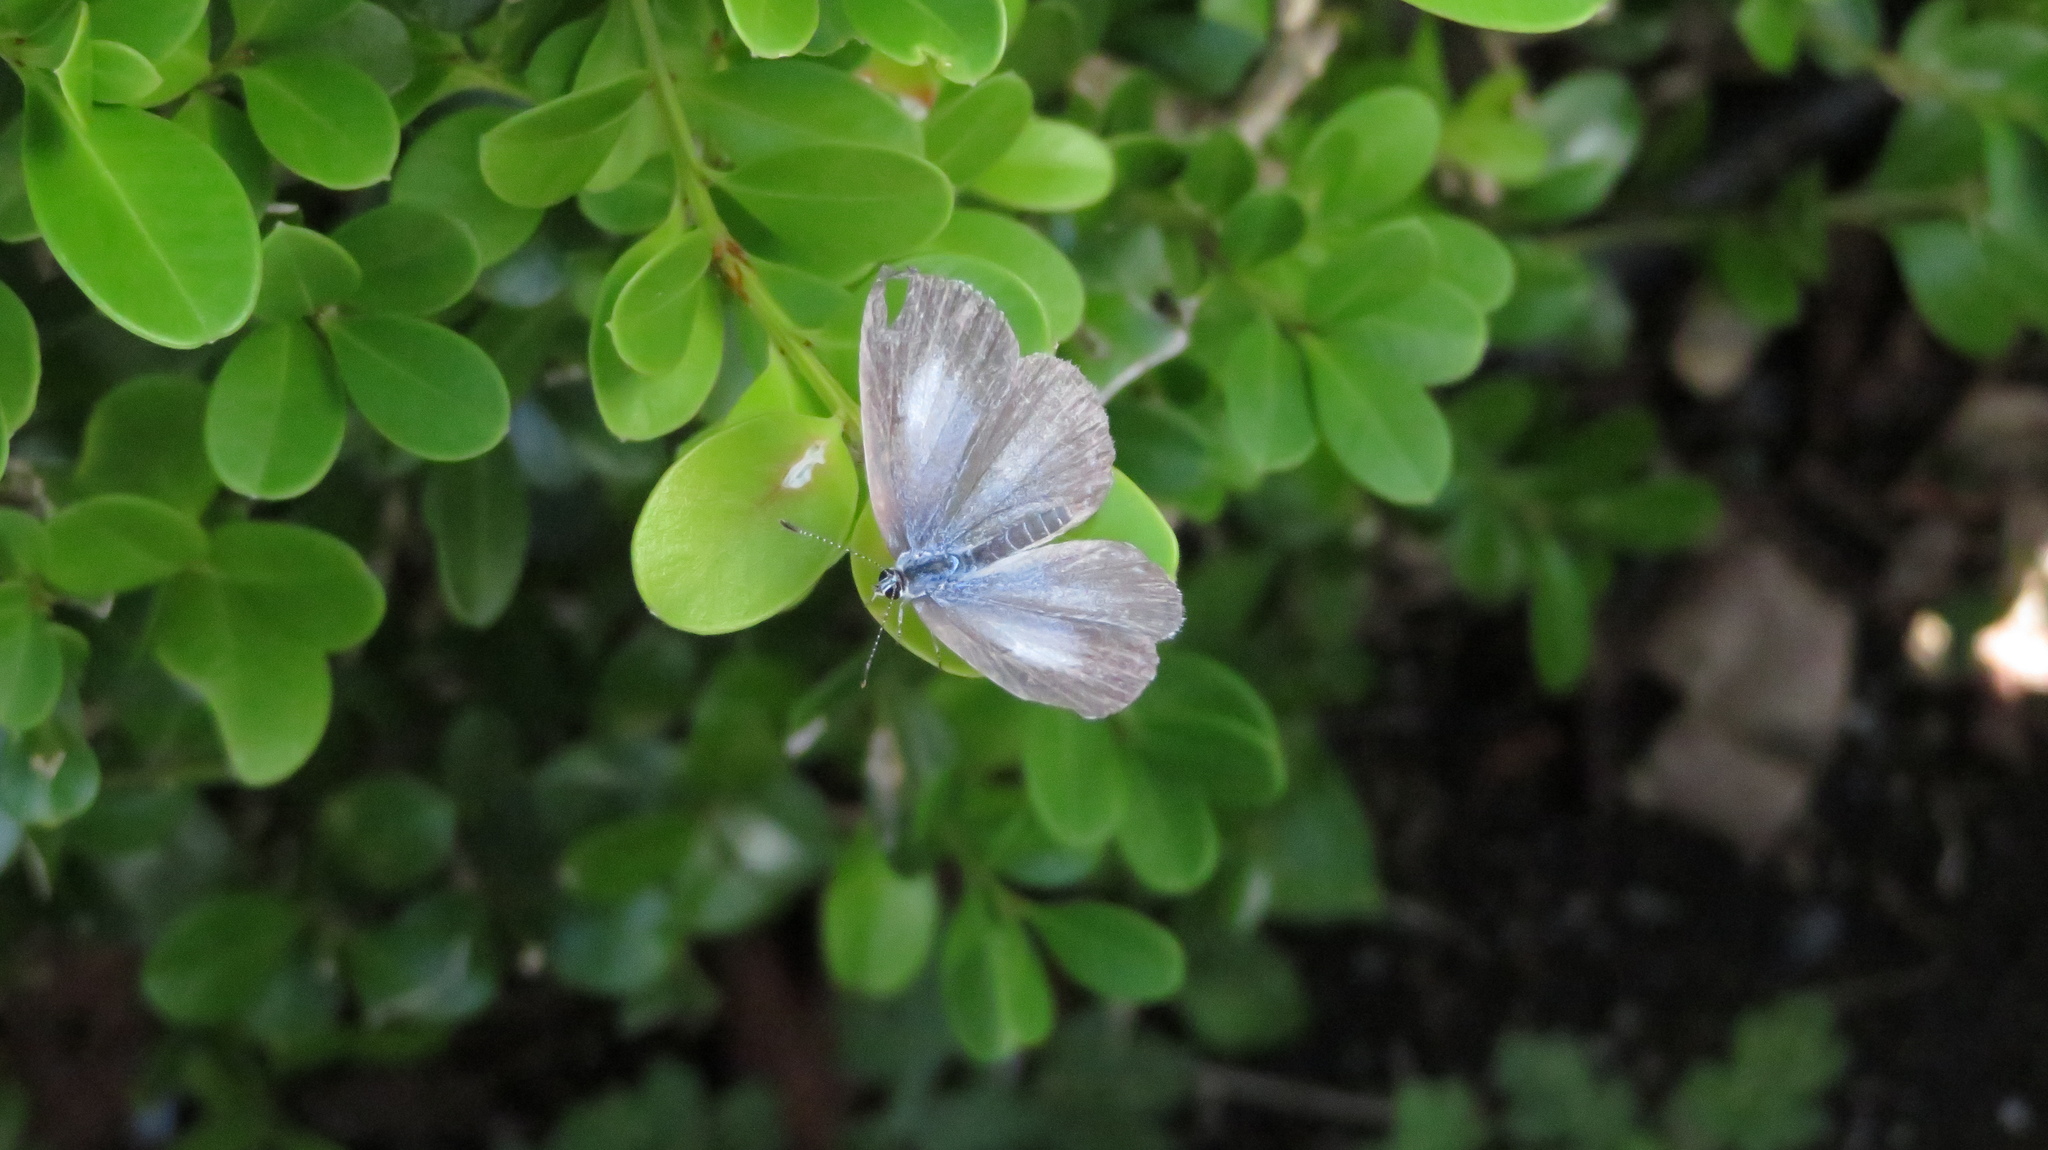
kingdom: Animalia
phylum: Arthropoda
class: Insecta
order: Lepidoptera
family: Lycaenidae
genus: Celastrina
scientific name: Celastrina argiolus
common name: Holly blue
